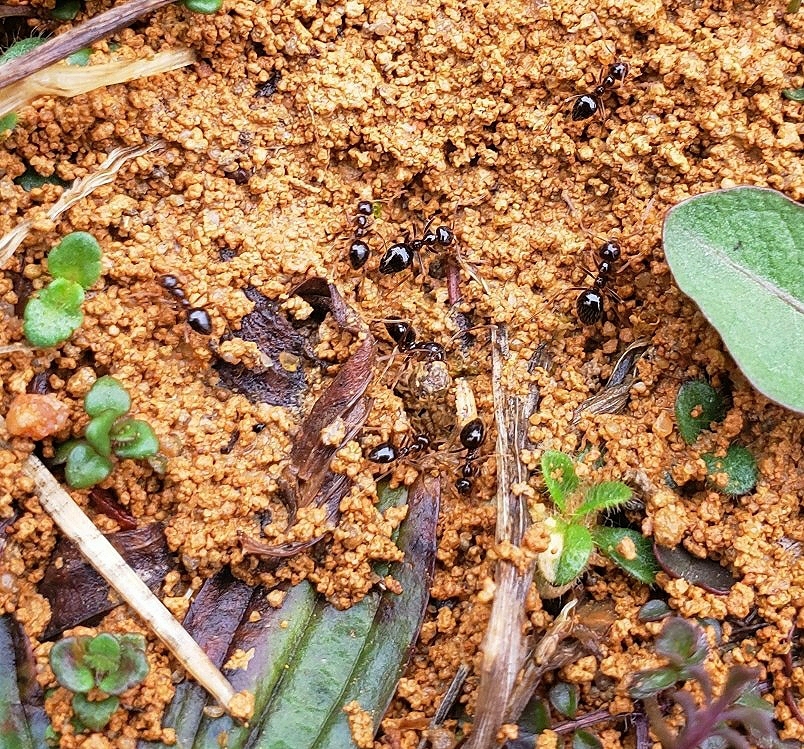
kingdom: Animalia
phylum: Arthropoda
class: Insecta
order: Hymenoptera
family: Formicidae
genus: Prenolepis
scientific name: Prenolepis imparis
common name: Small honey ant
